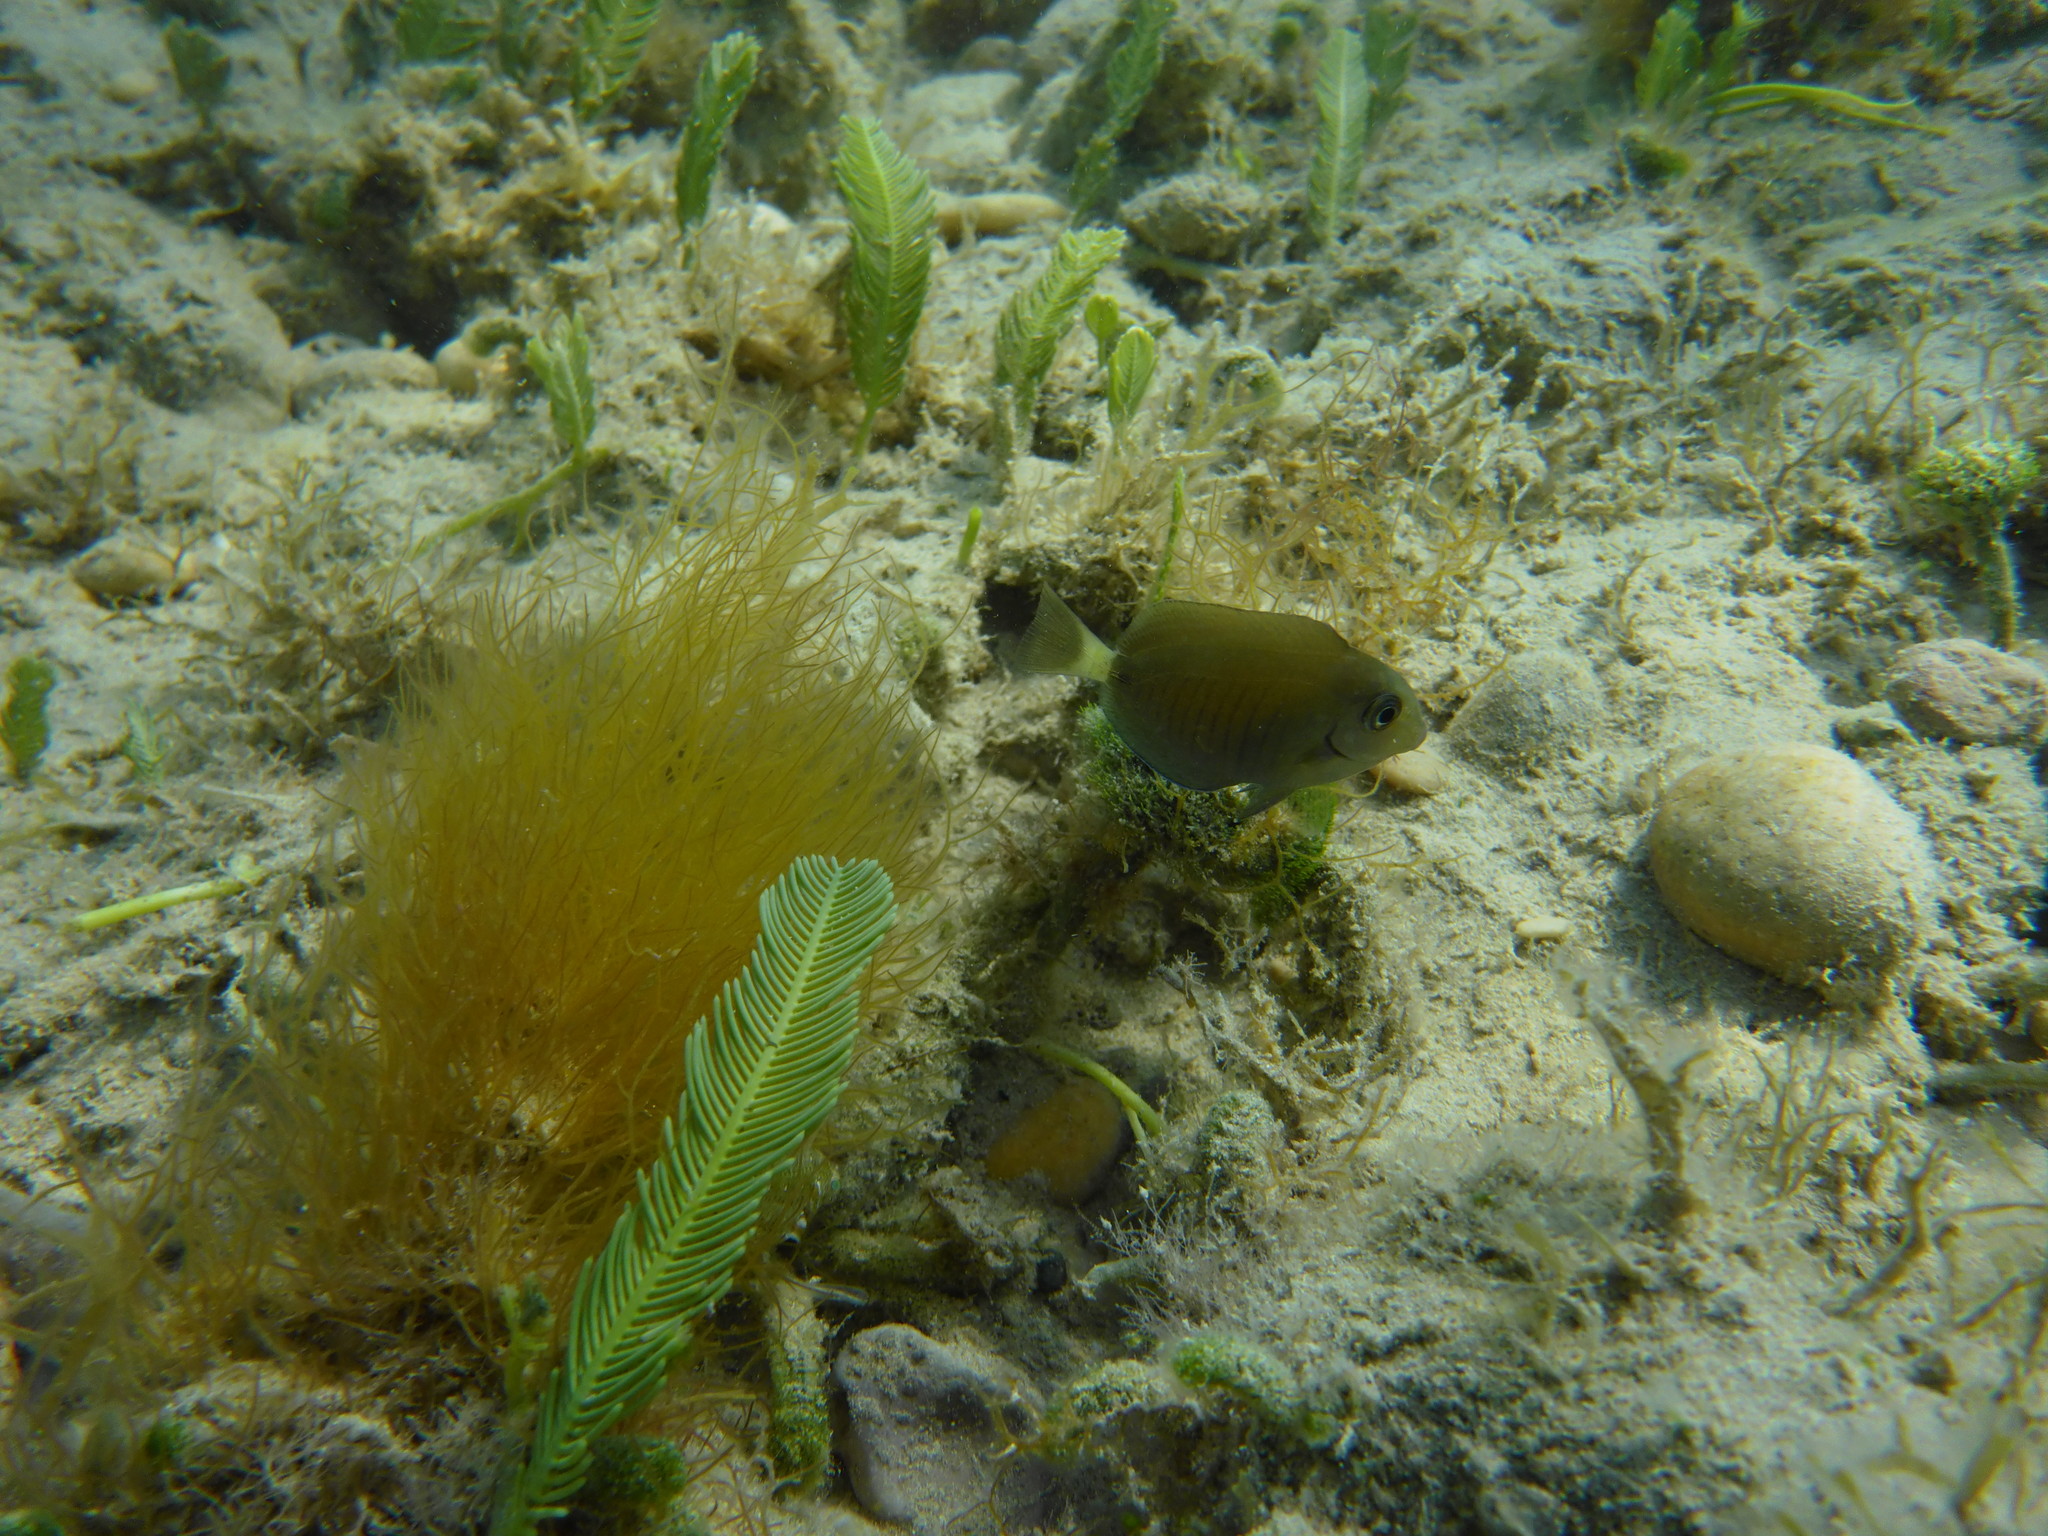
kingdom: Animalia
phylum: Chordata
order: Perciformes
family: Acanthuridae
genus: Acanthurus
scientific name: Acanthurus chirurgus
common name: Doctorfish
